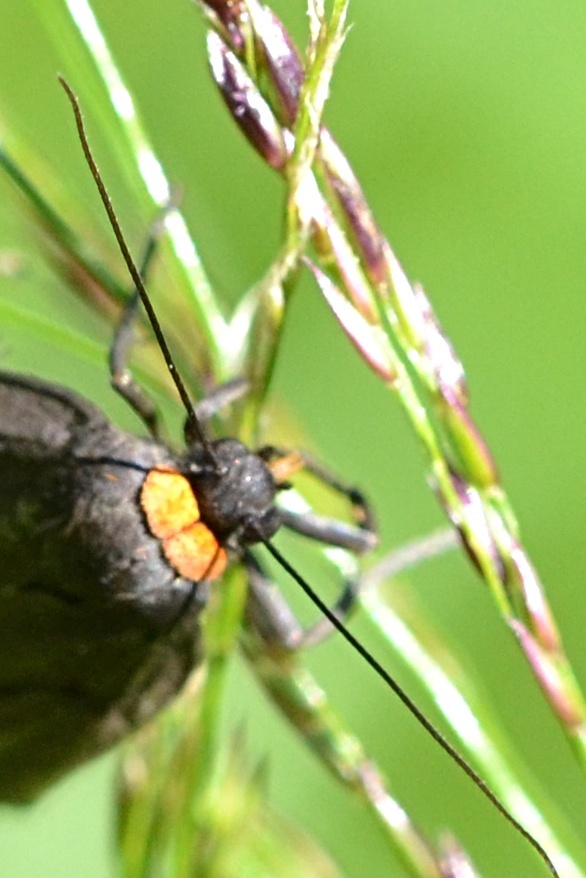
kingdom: Animalia
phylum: Arthropoda
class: Insecta
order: Lepidoptera
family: Erebidae
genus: Atolmis
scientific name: Atolmis rubricollis
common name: Red-necked footman
